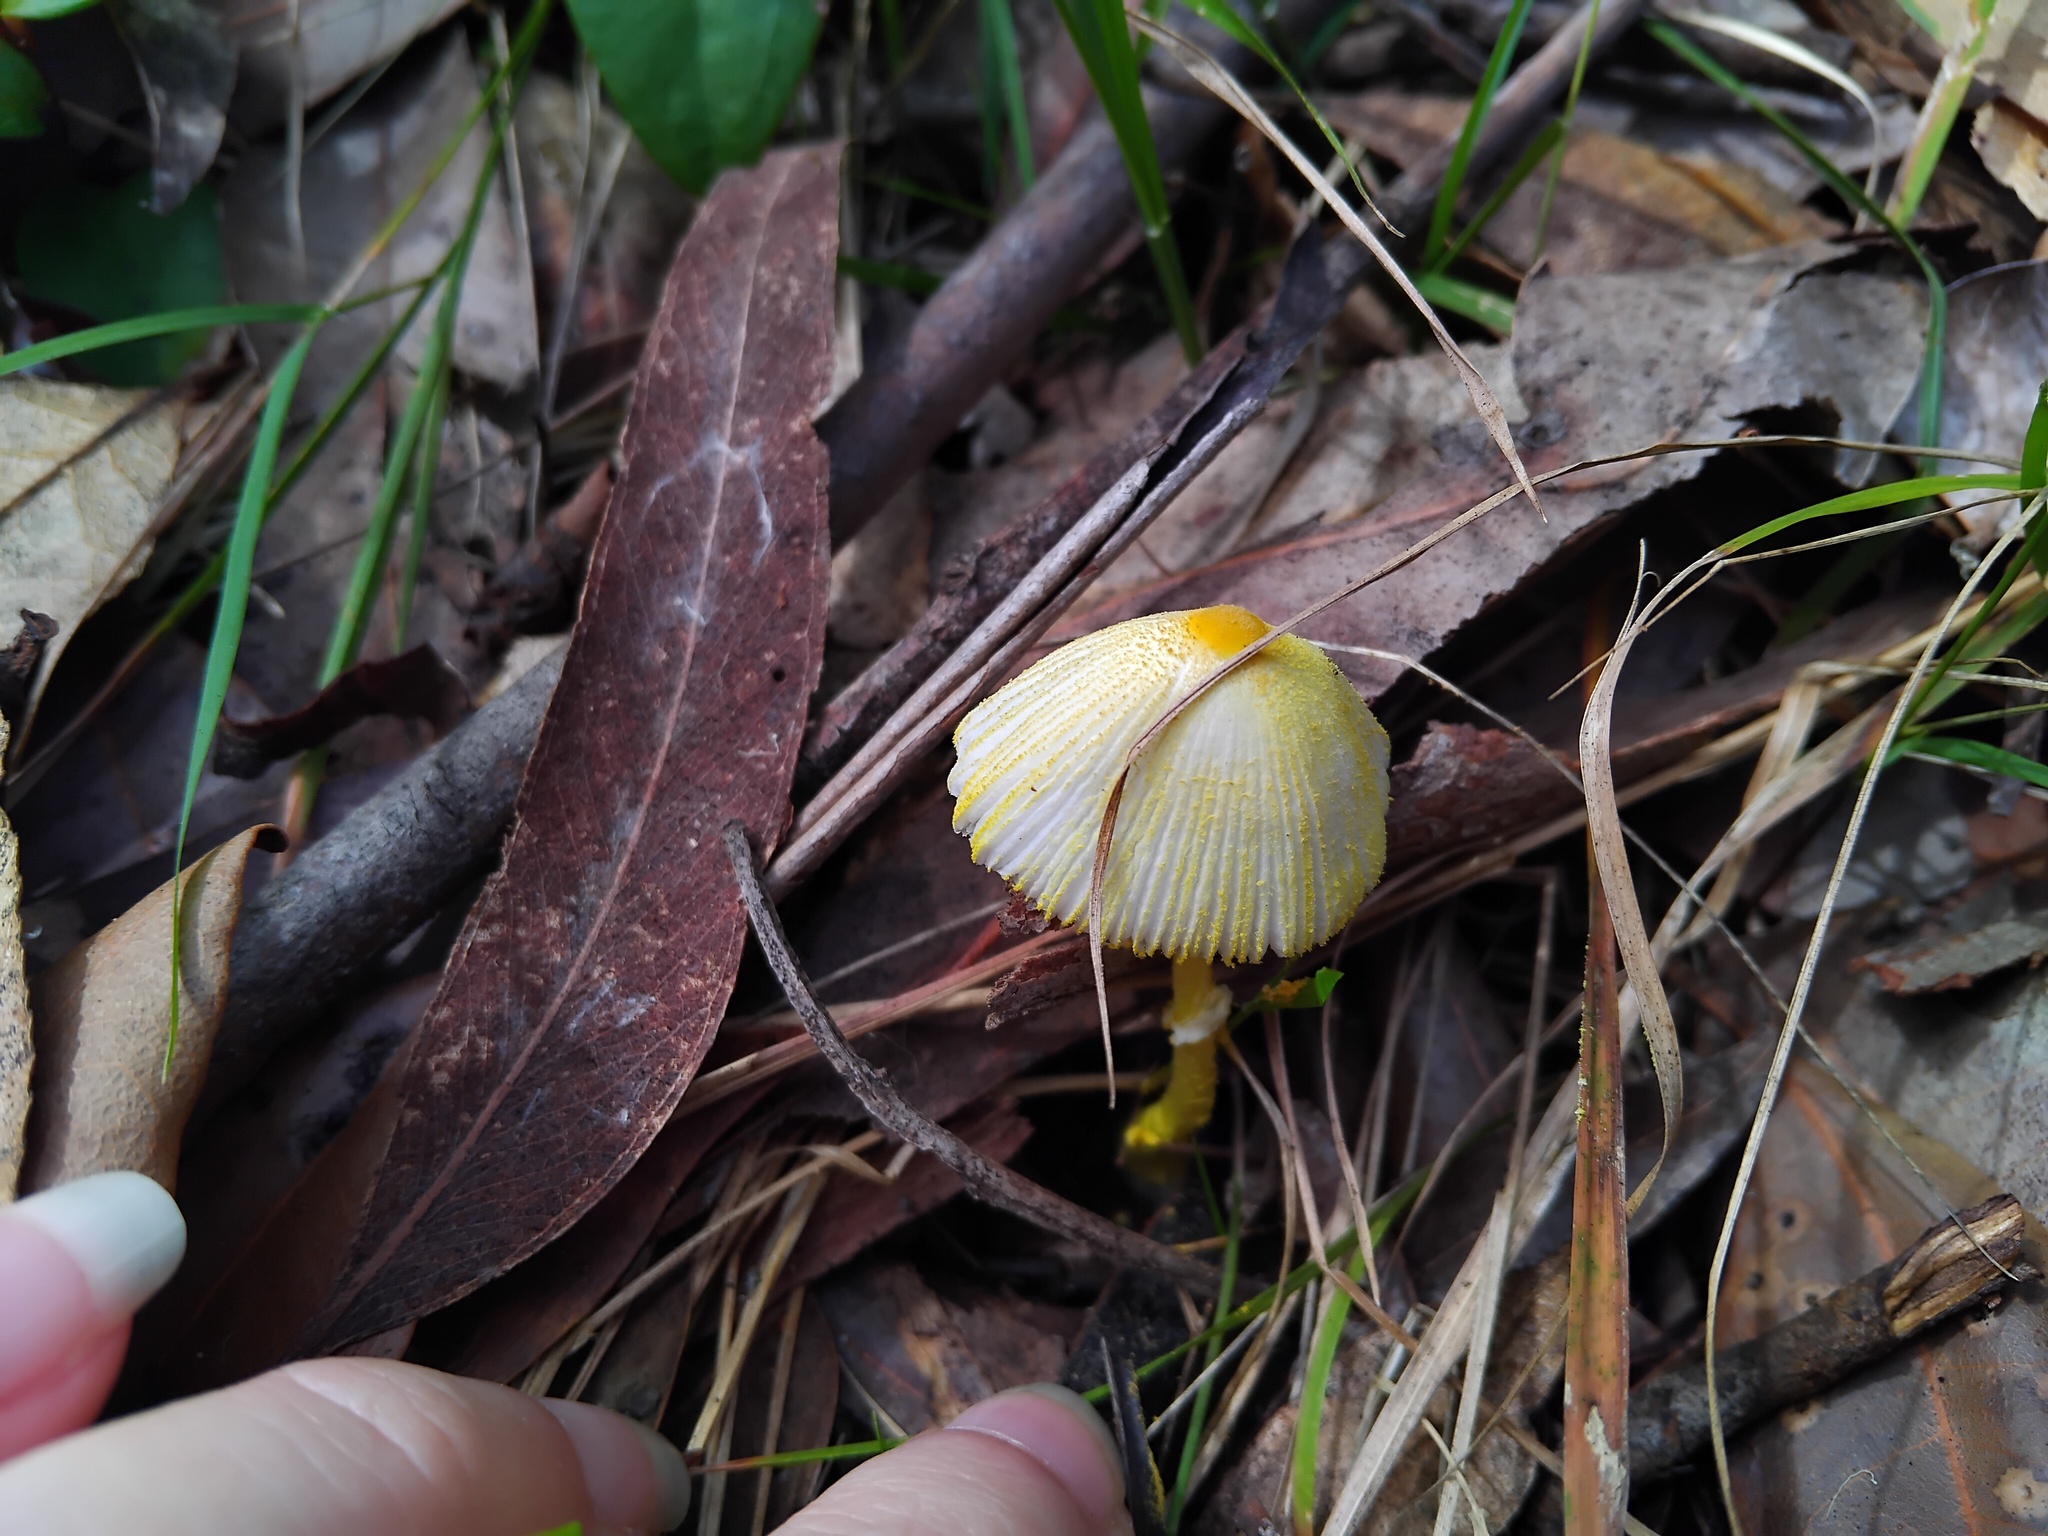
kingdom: Fungi
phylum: Basidiomycota
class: Agaricomycetes
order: Agaricales
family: Agaricaceae
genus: Leucocoprinus
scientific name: Leucocoprinus fragilissimus
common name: Fragile dapperling
